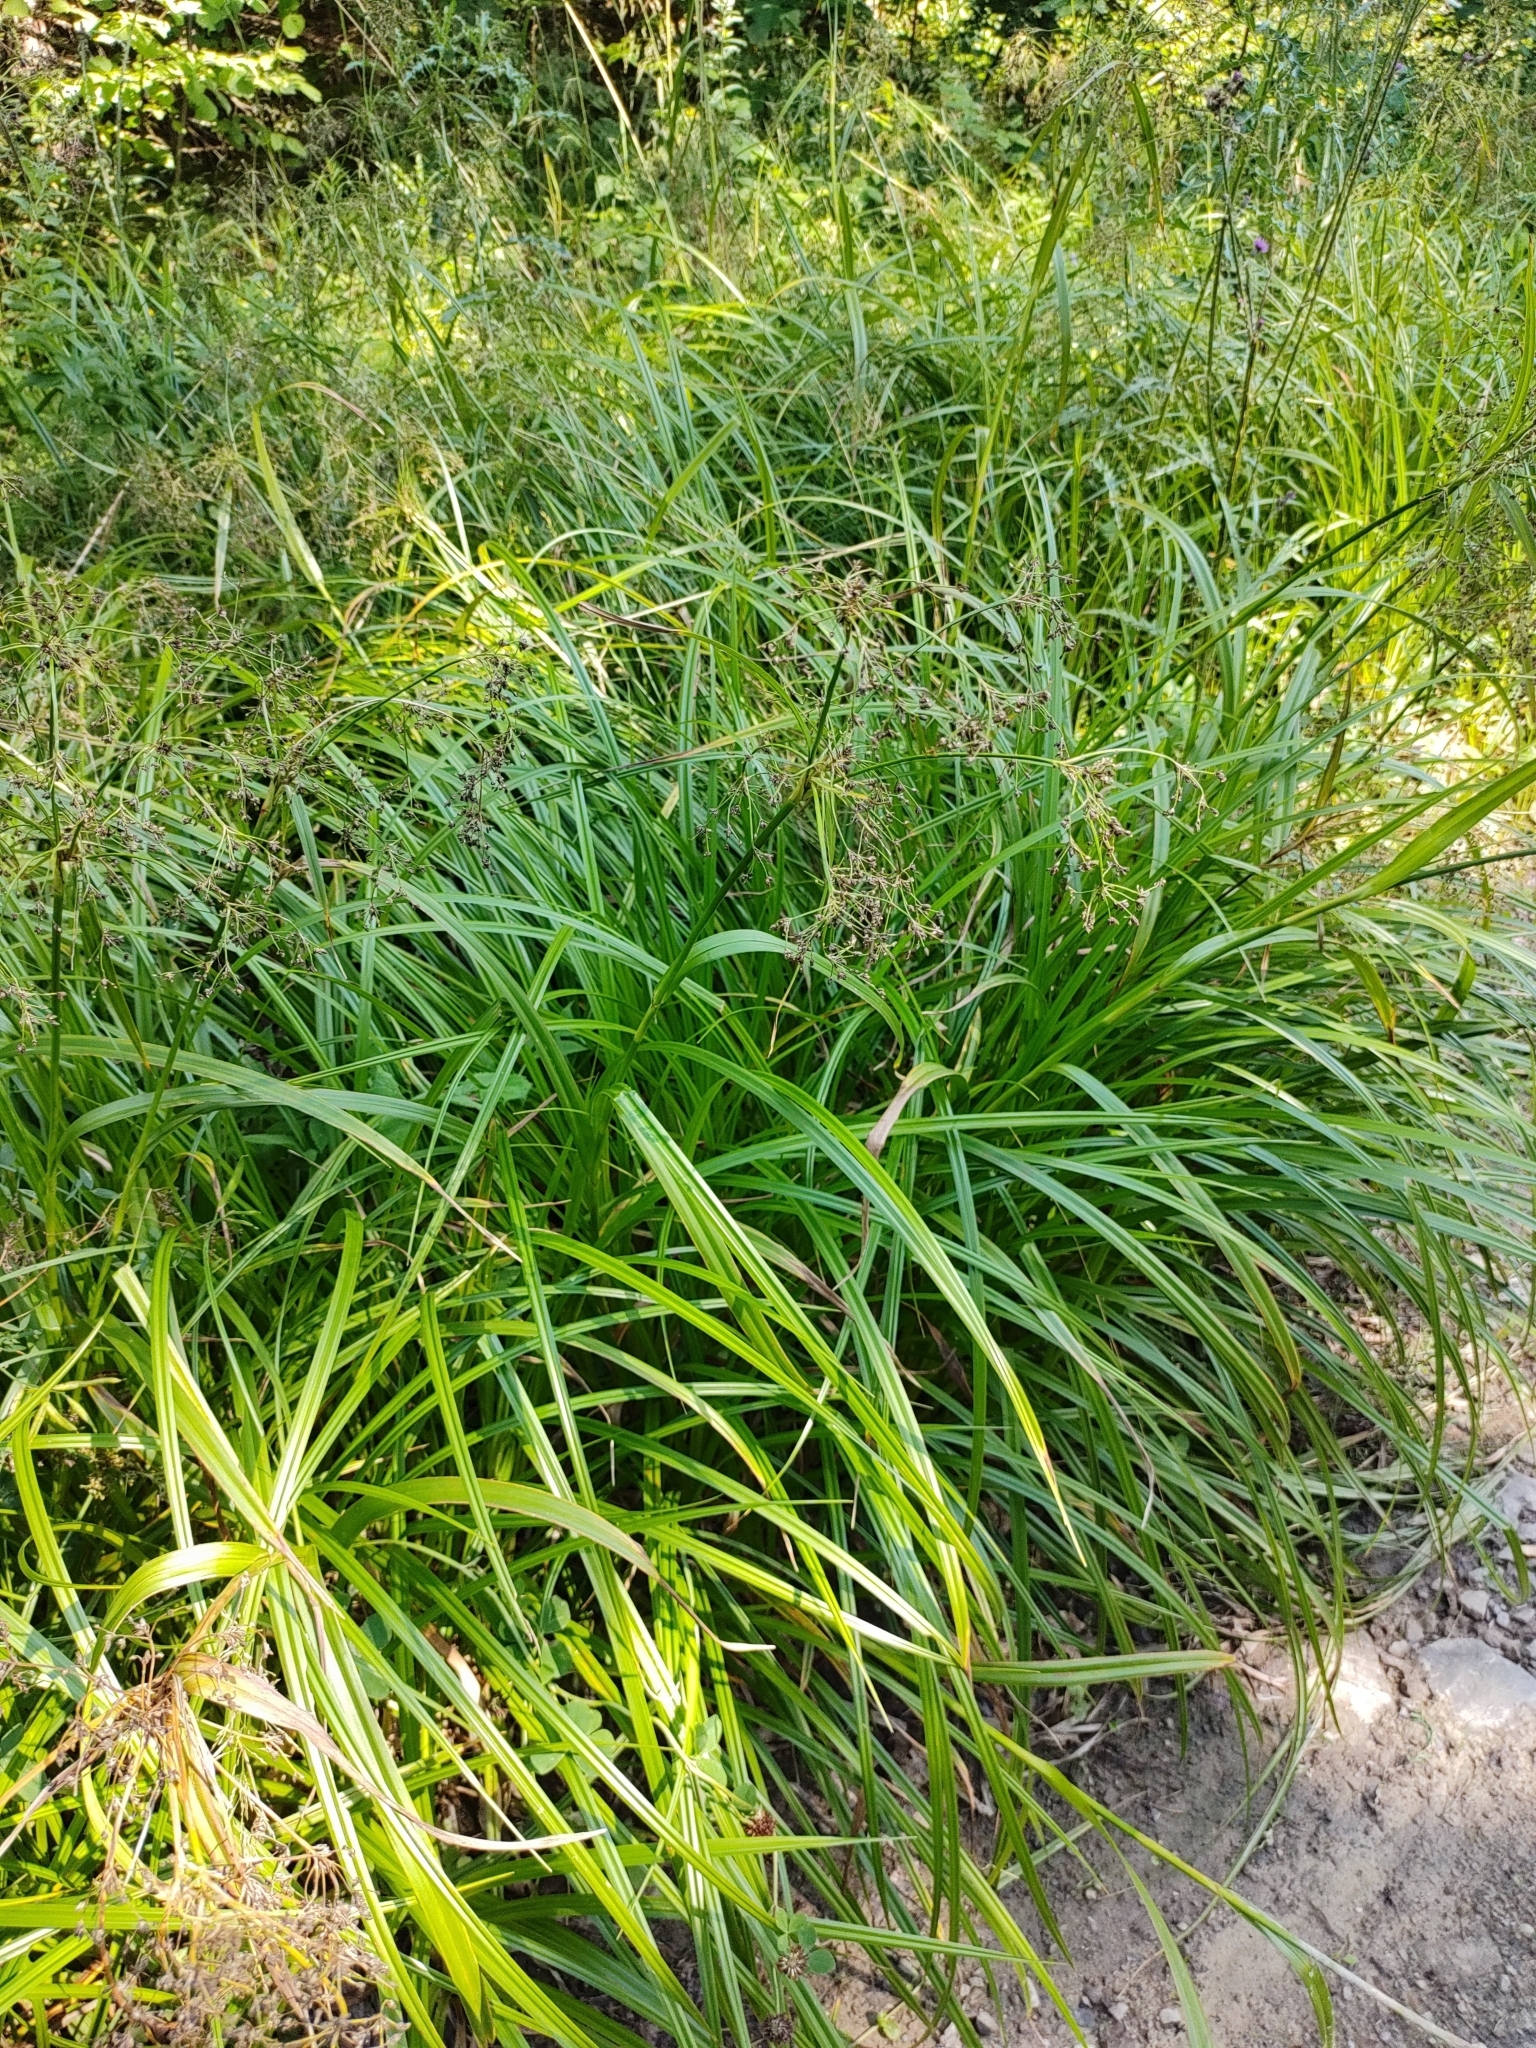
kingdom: Plantae
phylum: Tracheophyta
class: Liliopsida
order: Poales
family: Cyperaceae
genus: Scirpus
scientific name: Scirpus sylvaticus
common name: Wood club-rush
